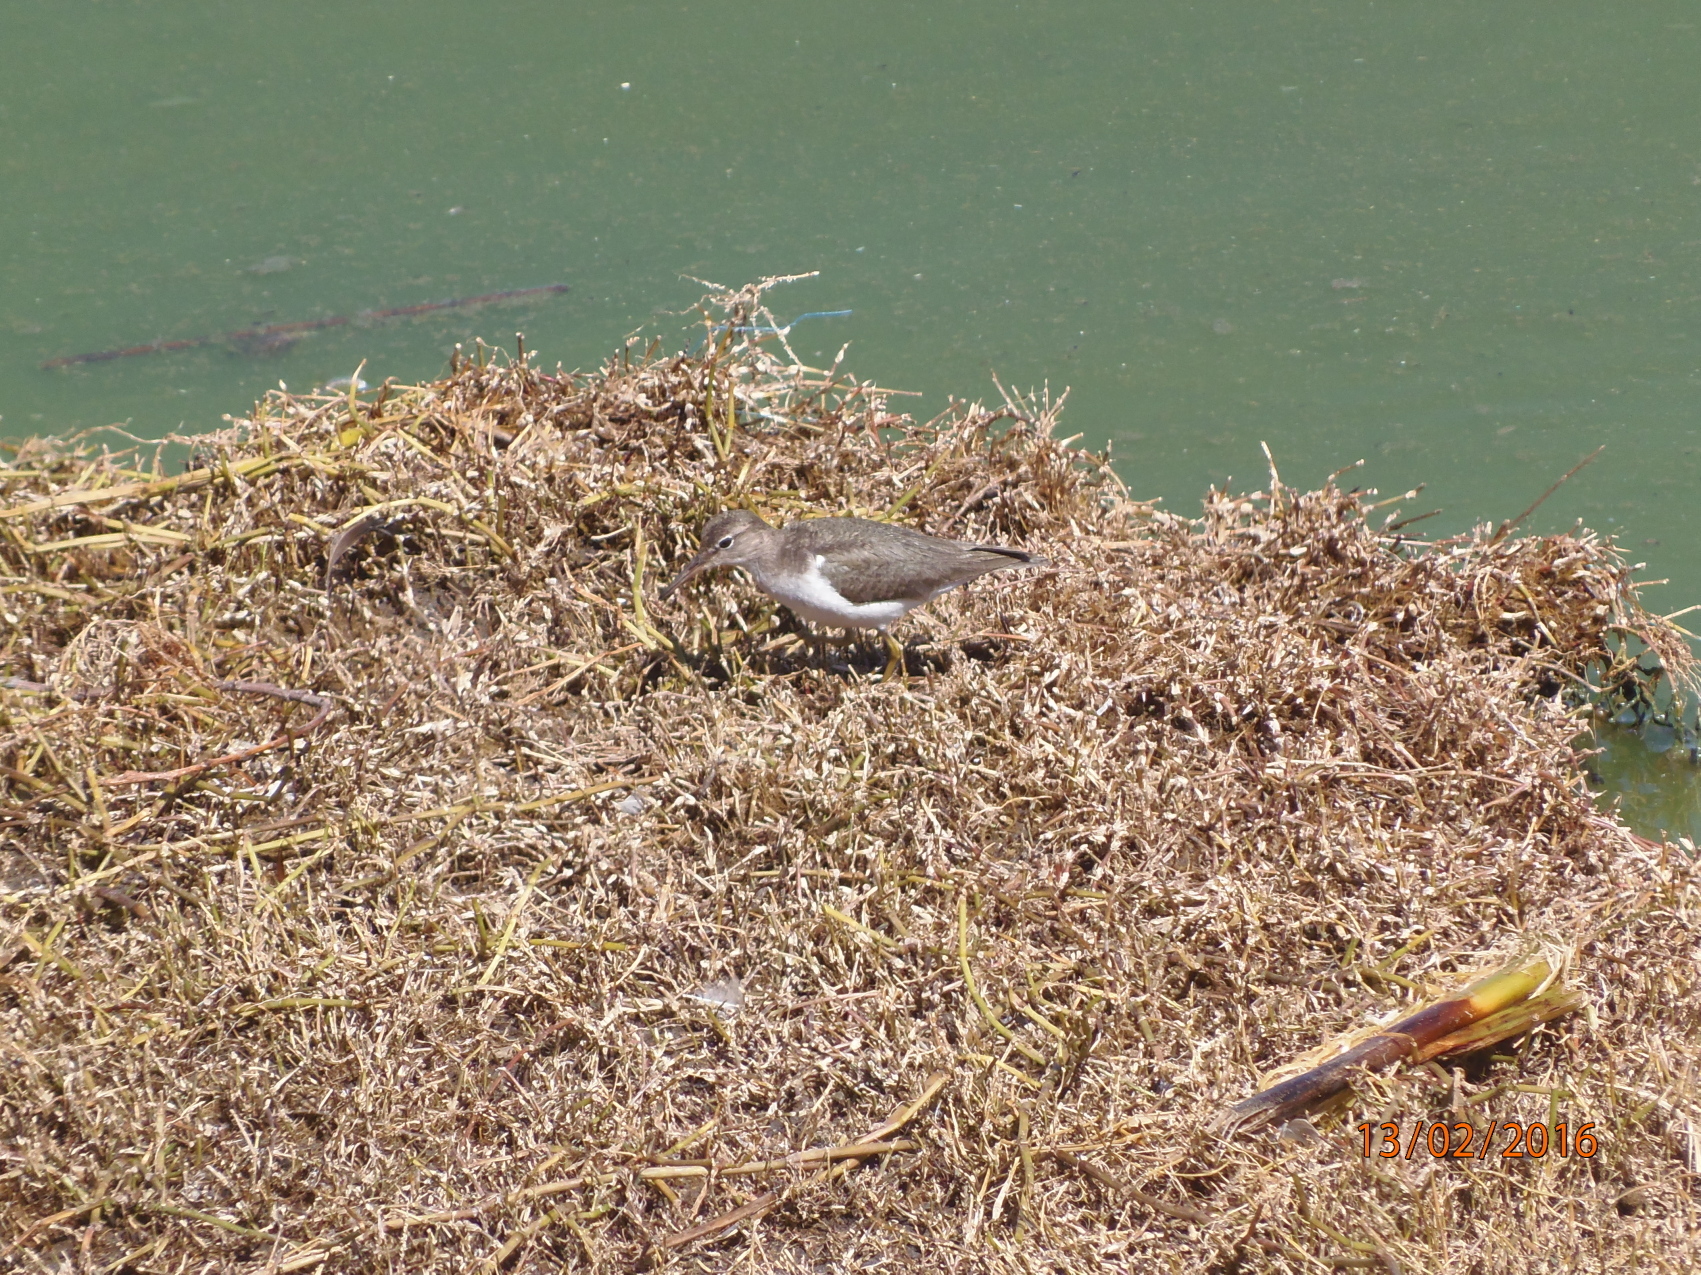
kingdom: Animalia
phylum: Chordata
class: Aves
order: Charadriiformes
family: Scolopacidae
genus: Actitis
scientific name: Actitis macularius
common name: Spotted sandpiper
